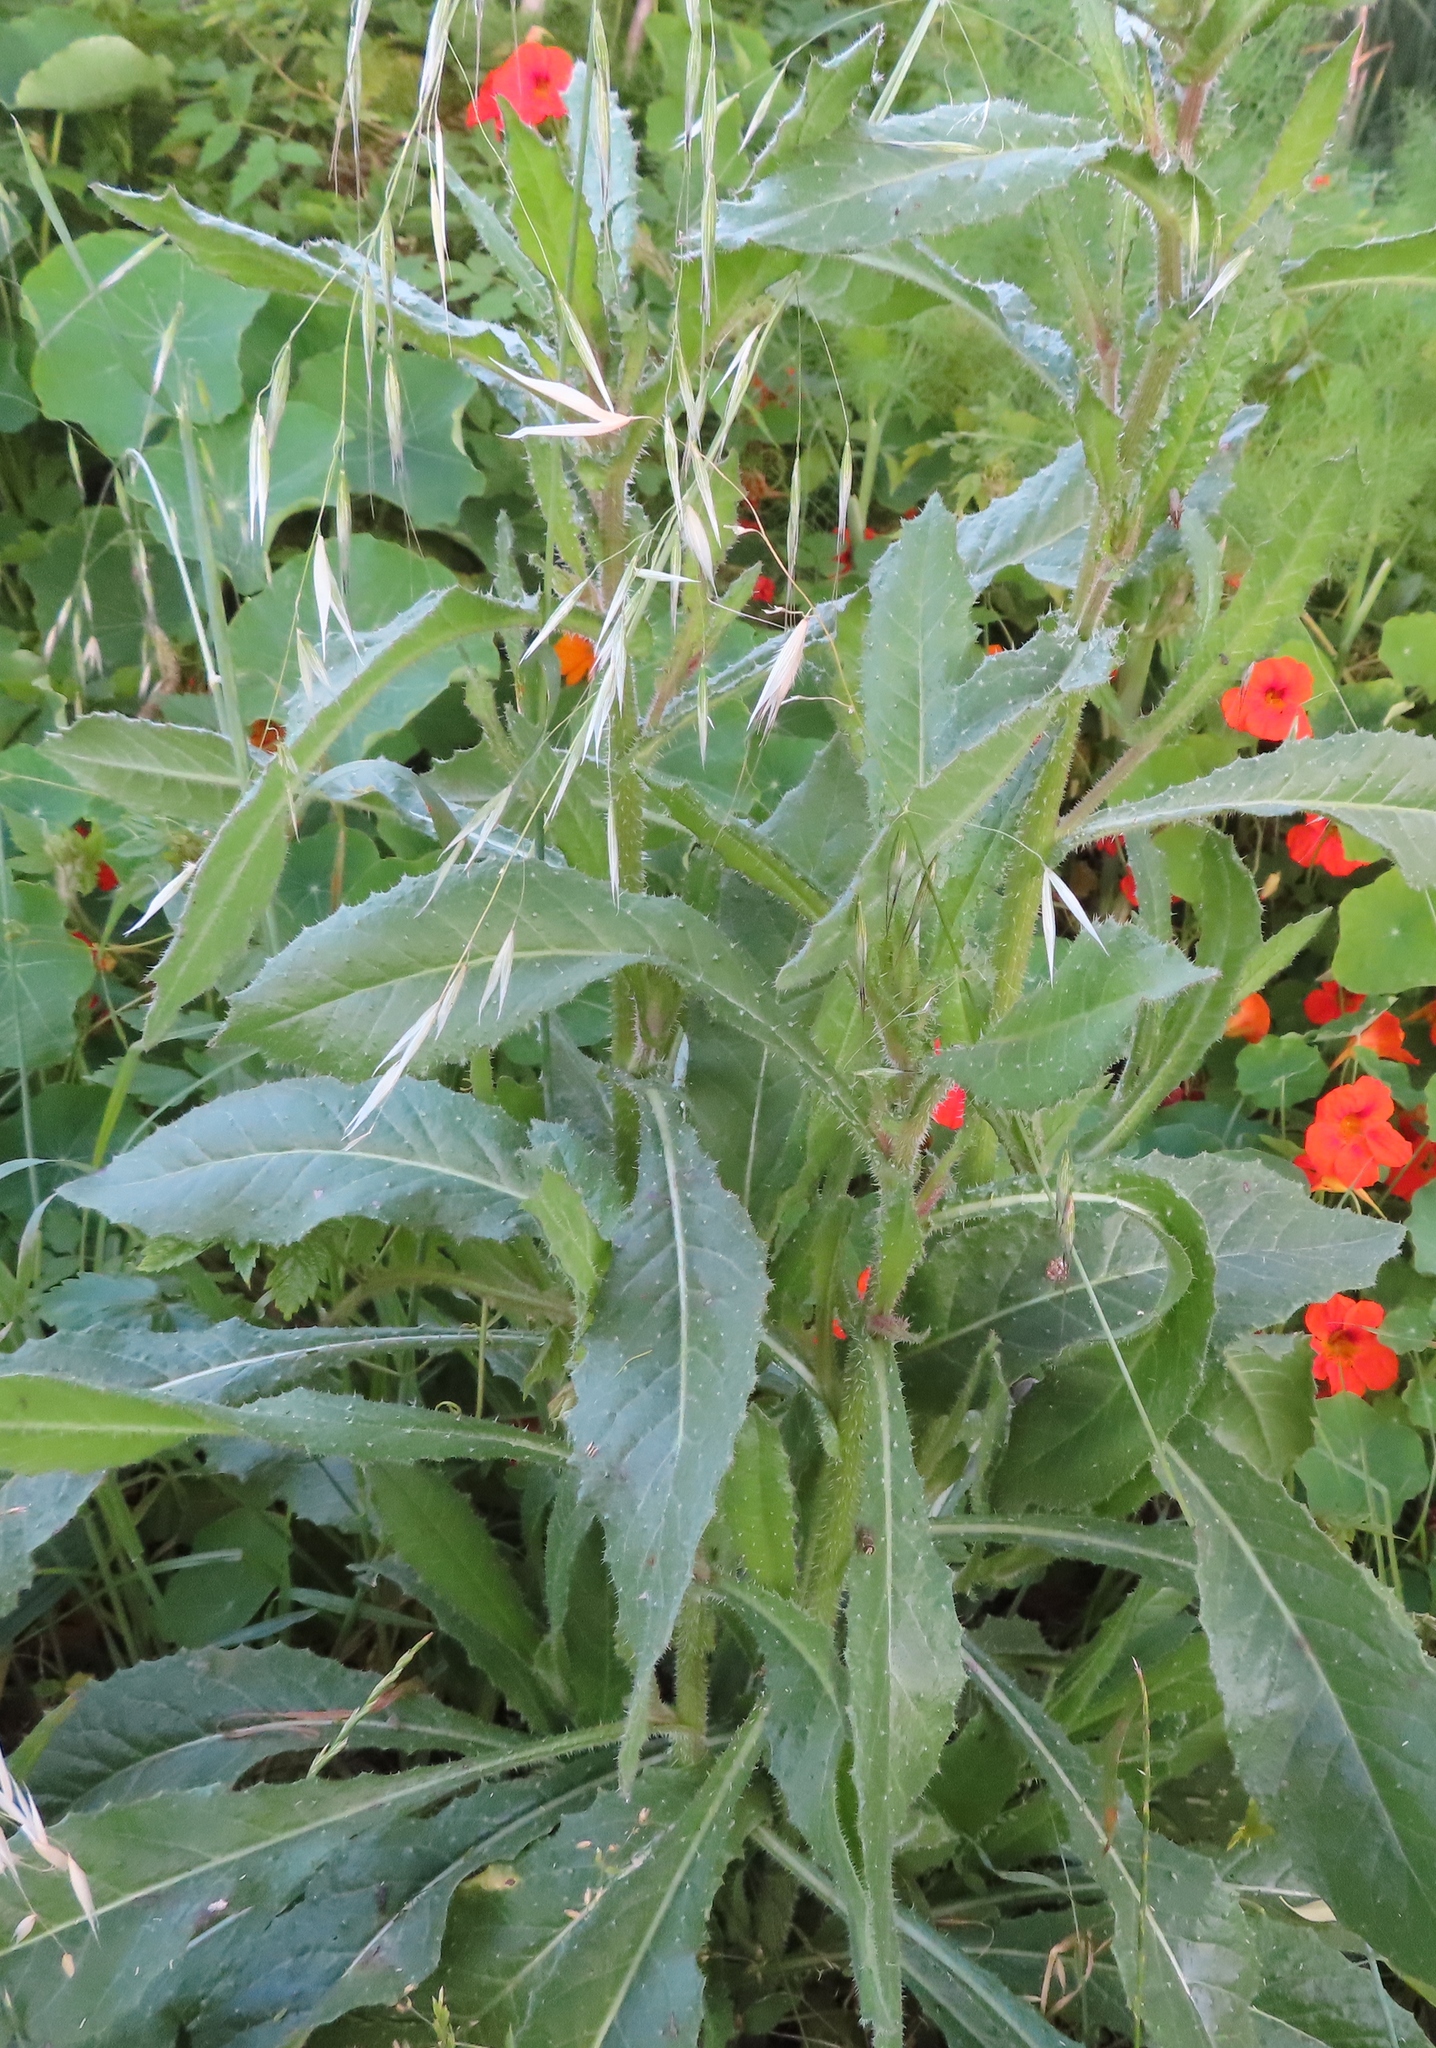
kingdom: Plantae
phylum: Tracheophyta
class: Magnoliopsida
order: Asterales
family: Asteraceae
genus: Helminthotheca
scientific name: Helminthotheca echioides
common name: Ox-tongue
